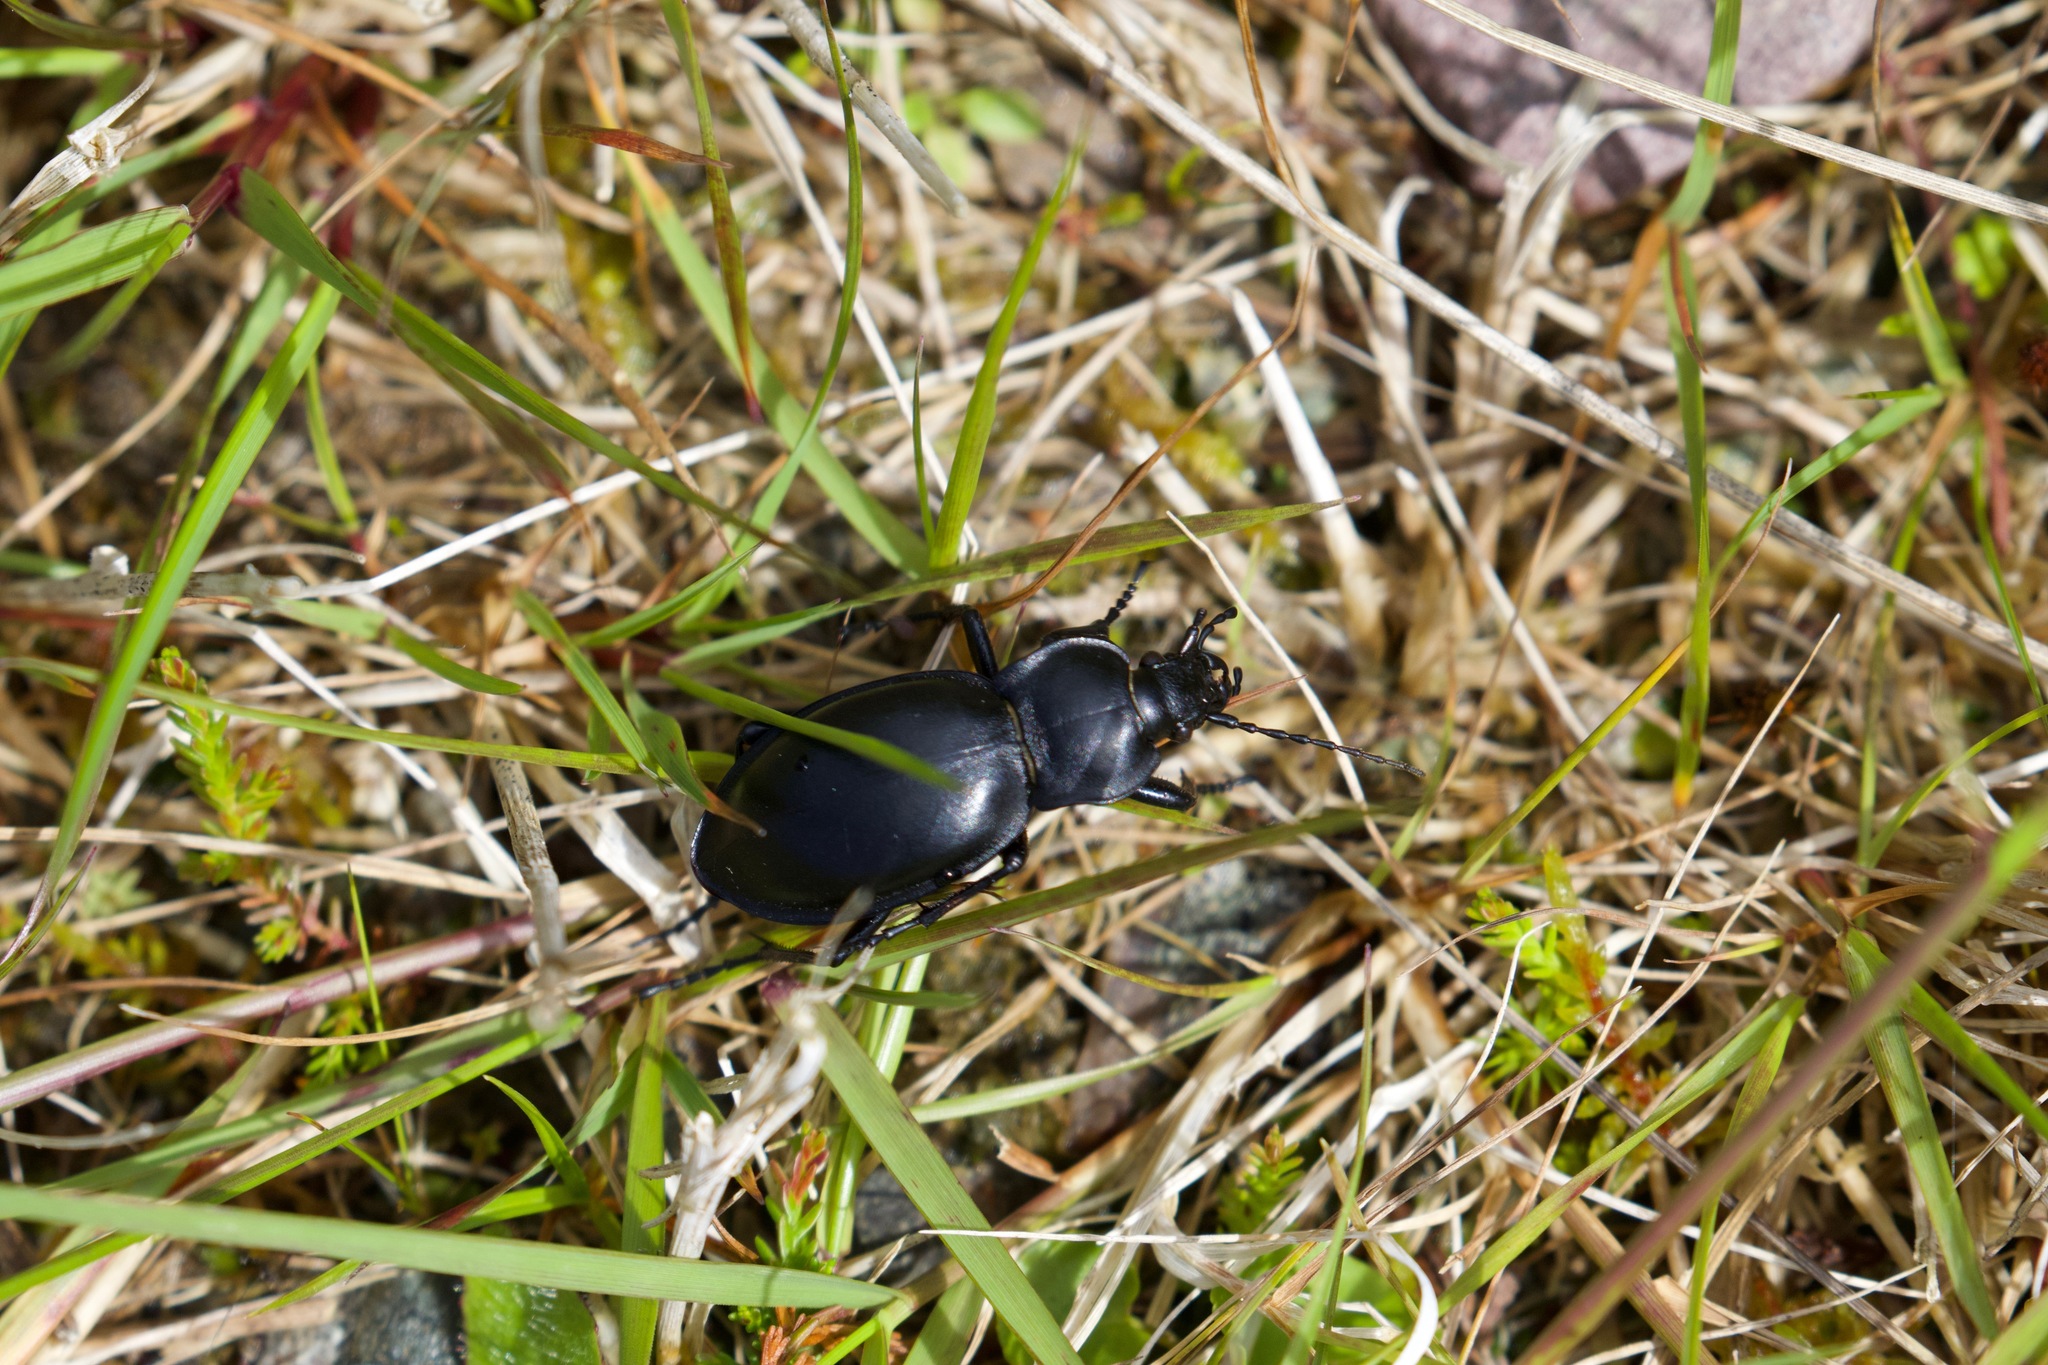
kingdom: Animalia
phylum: Arthropoda
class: Insecta
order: Coleoptera
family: Carabidae
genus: Carabus
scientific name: Carabus glabratus
